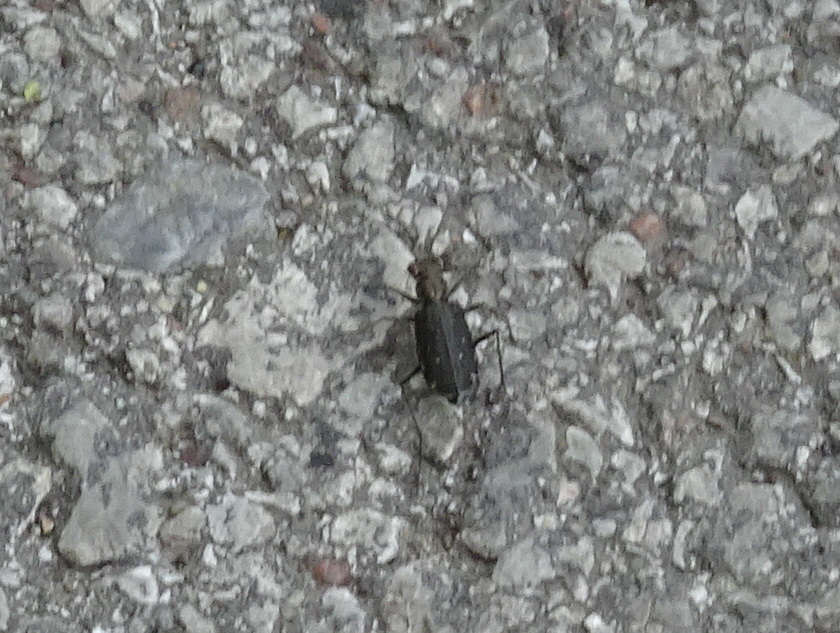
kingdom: Animalia
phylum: Arthropoda
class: Insecta
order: Coleoptera
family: Carabidae
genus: Cicindela
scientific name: Cicindela punctulata
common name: Punctured tiger beetle
